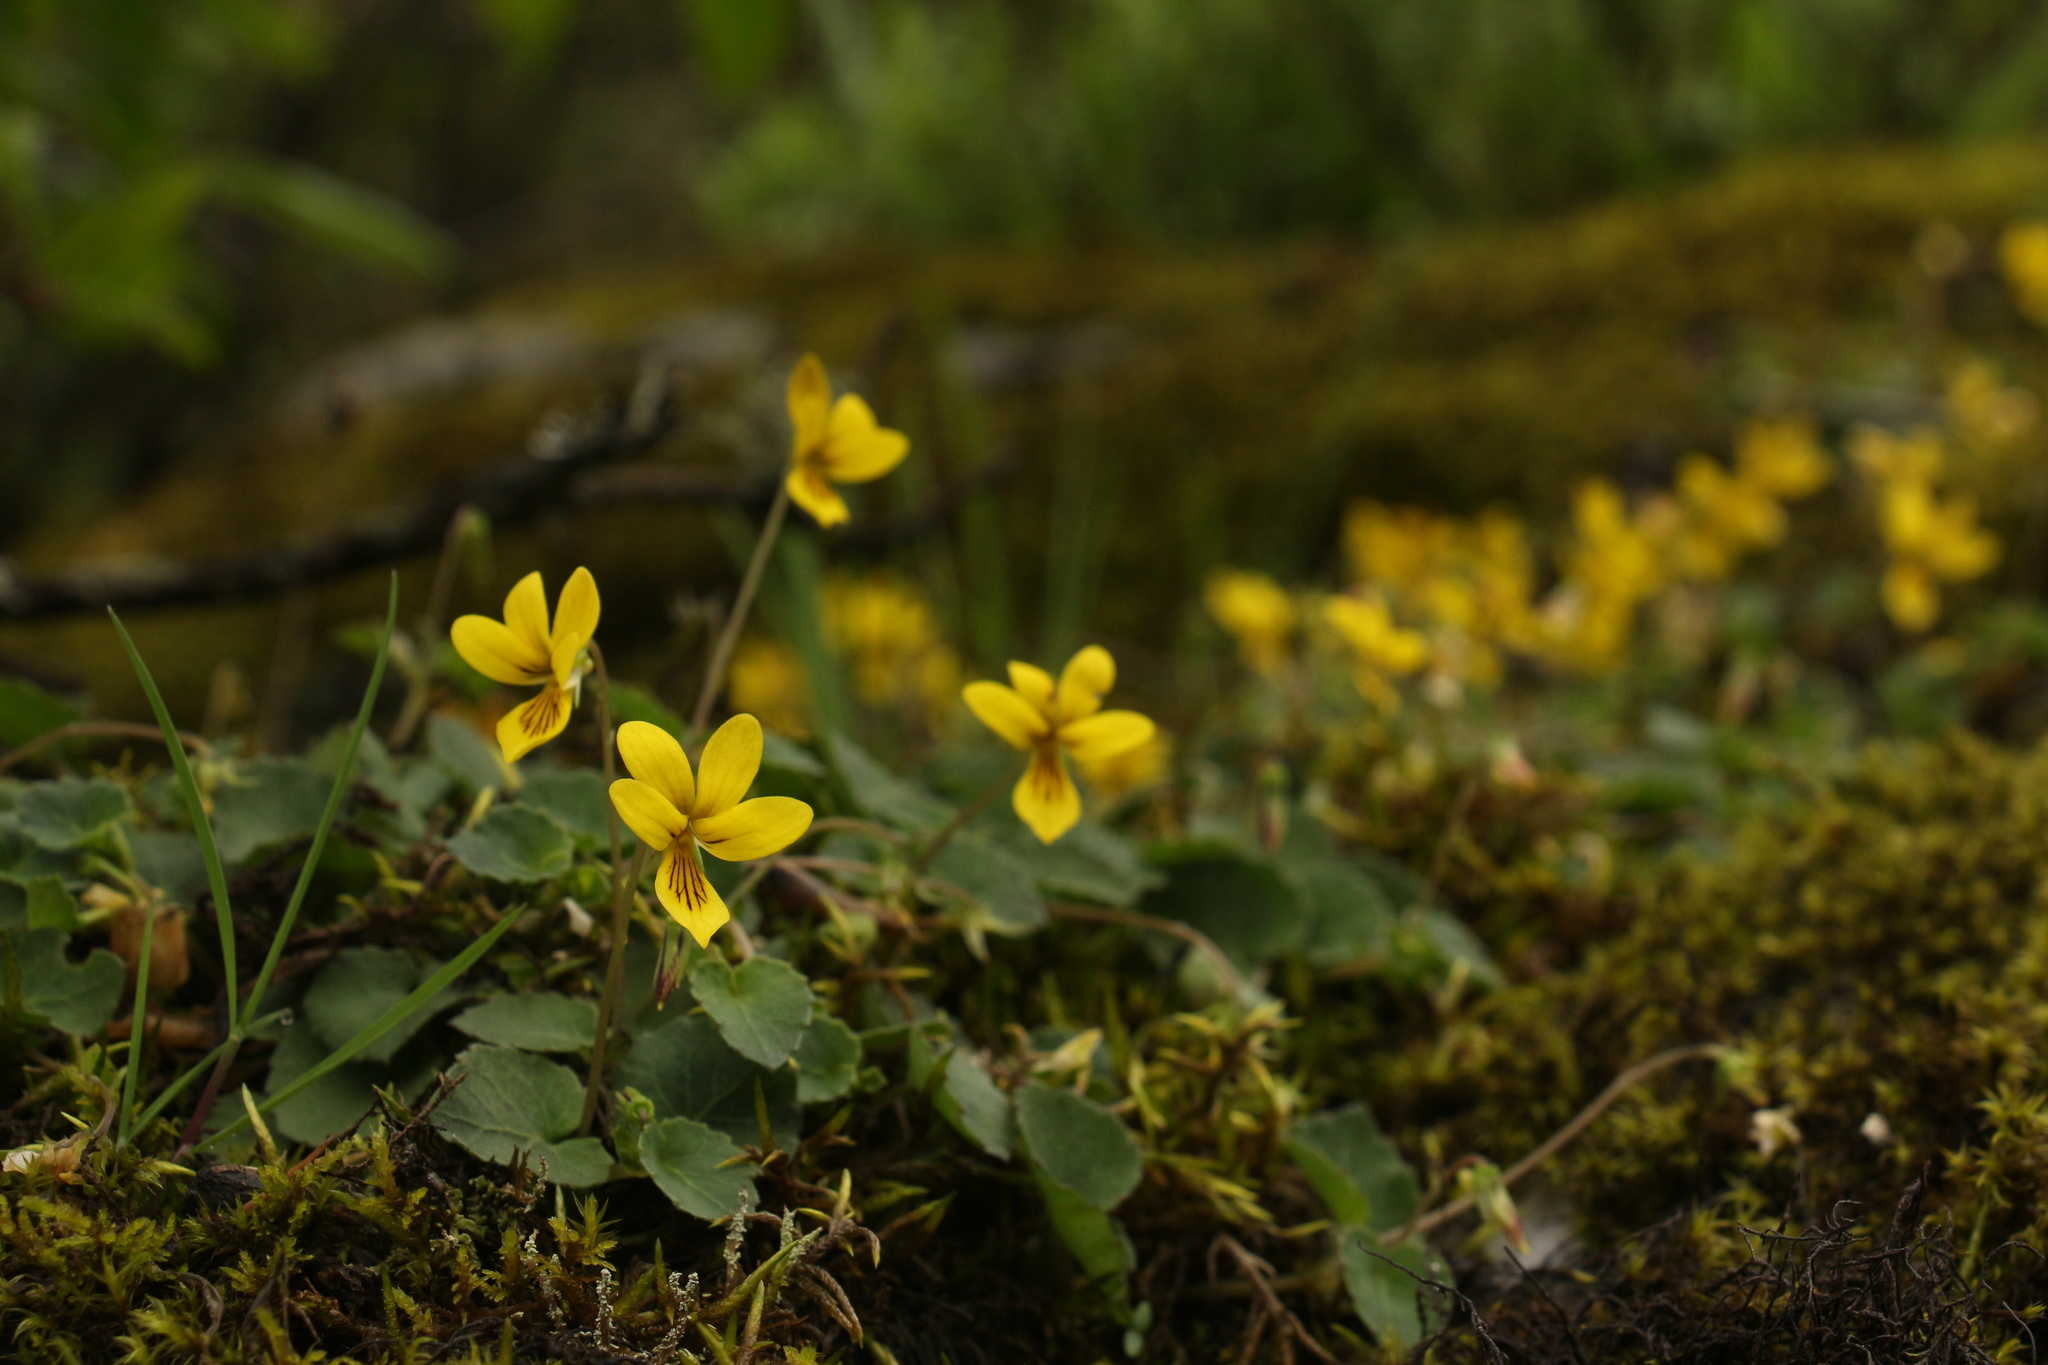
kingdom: Plantae
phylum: Tracheophyta
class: Magnoliopsida
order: Malpighiales
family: Violaceae
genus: Viola
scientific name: Viola biflora
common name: Alpine yellow violet
